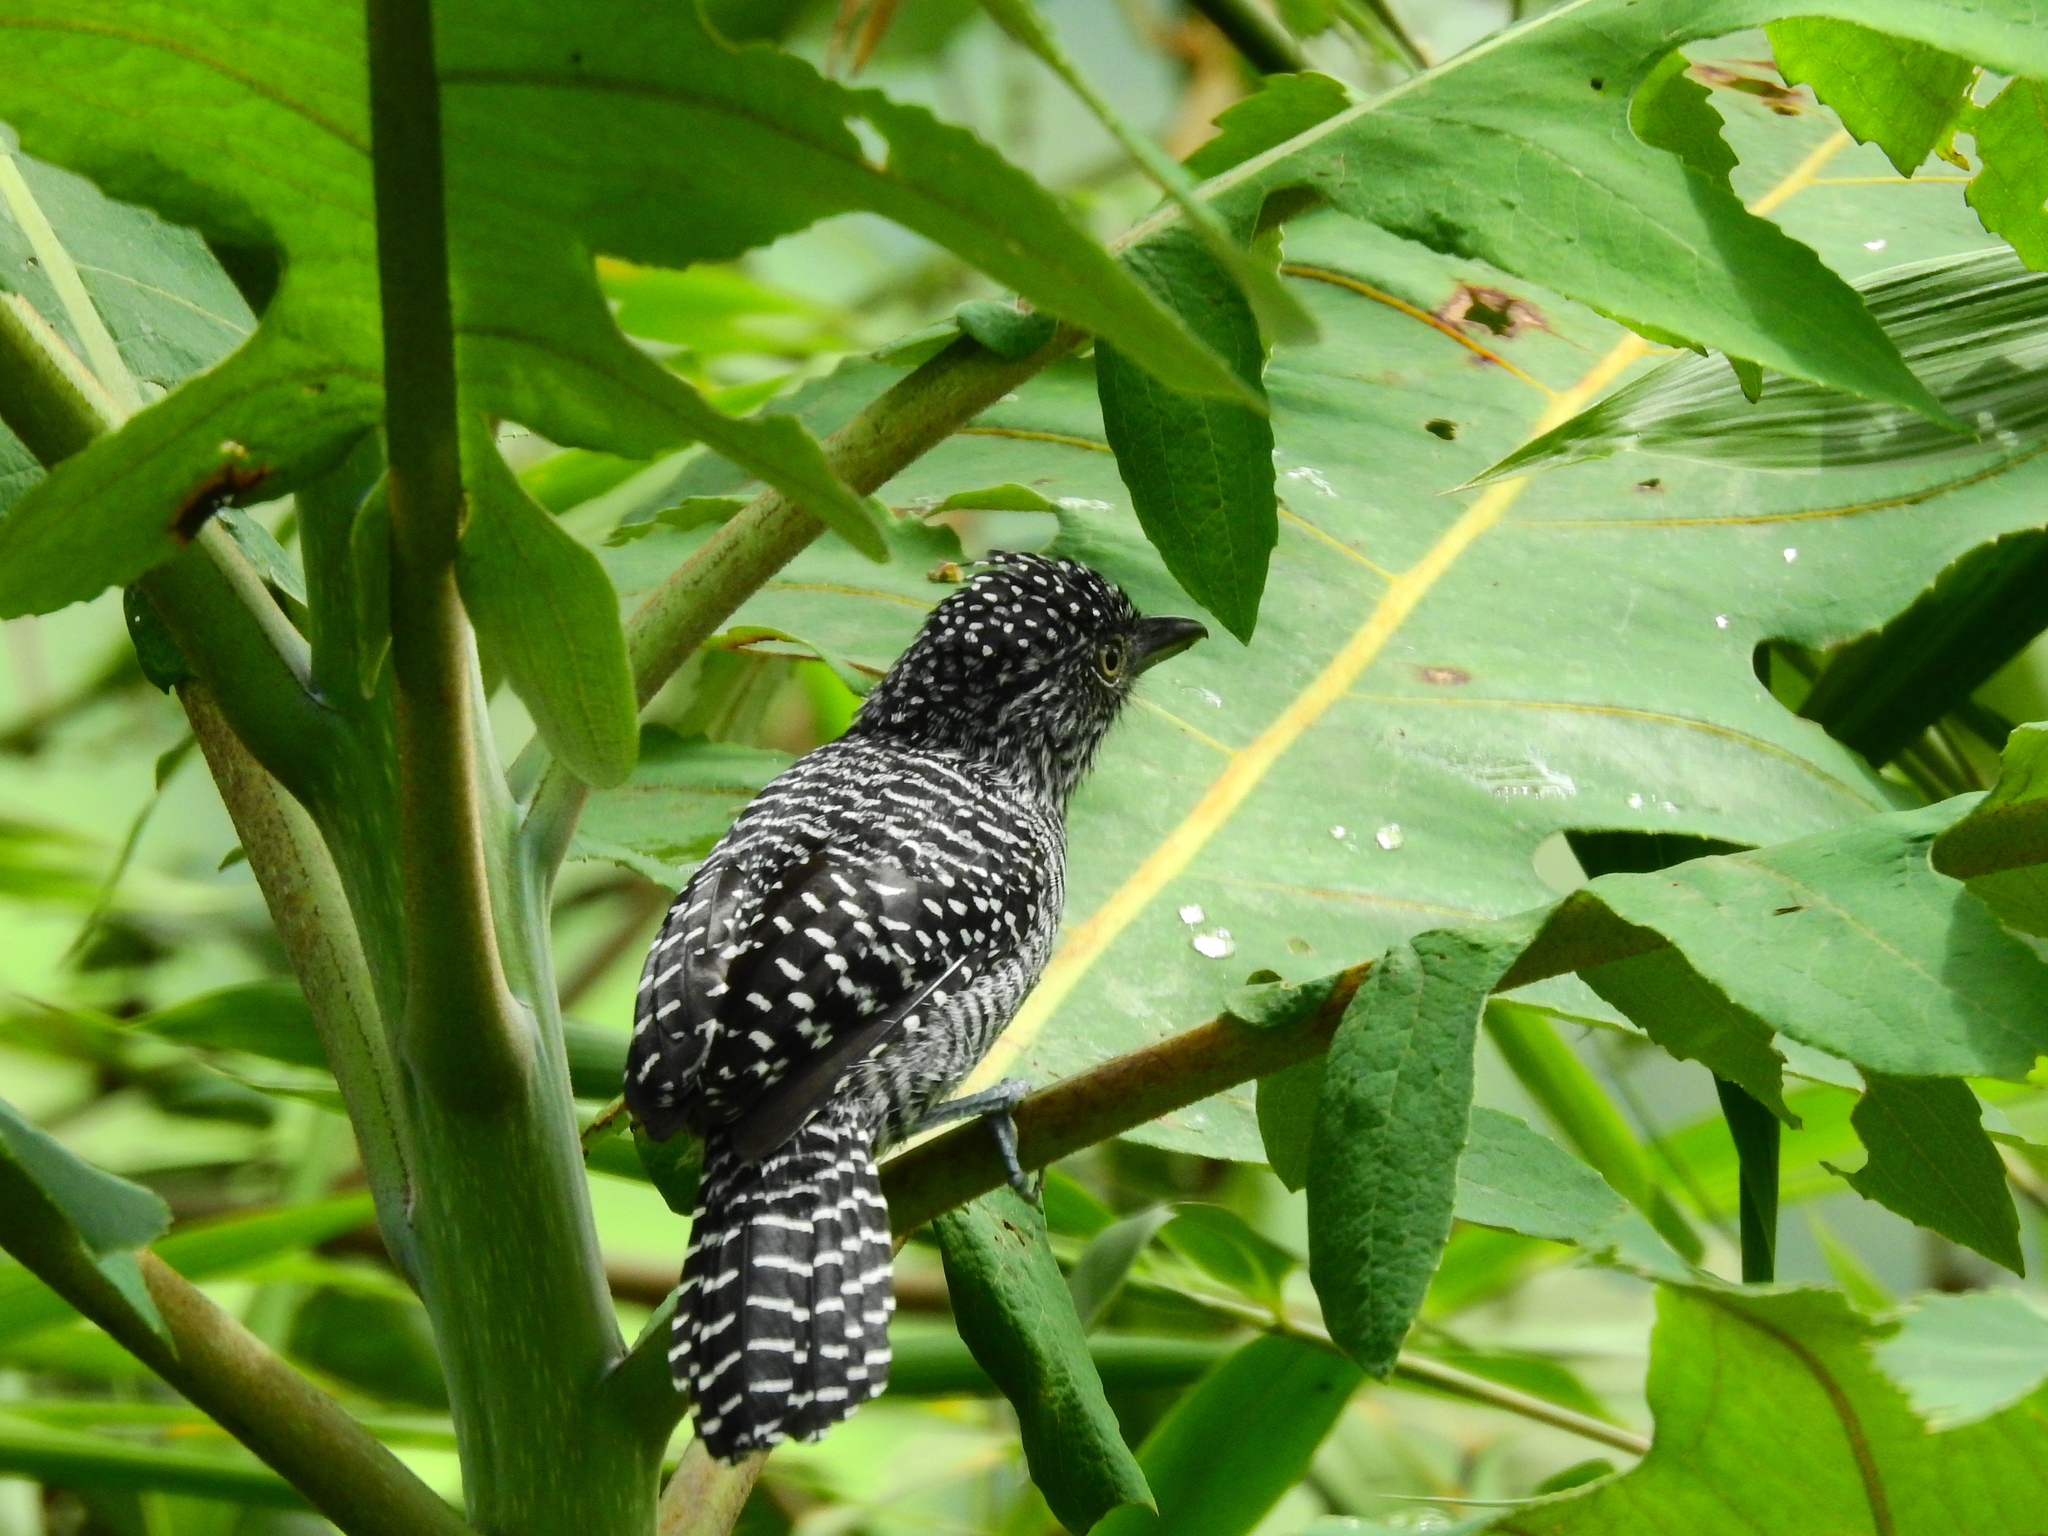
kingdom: Animalia
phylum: Chordata
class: Aves
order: Passeriformes
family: Thamnophilidae
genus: Thamnophilus
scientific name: Thamnophilus multistriatus
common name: Bar-crested antshrike
